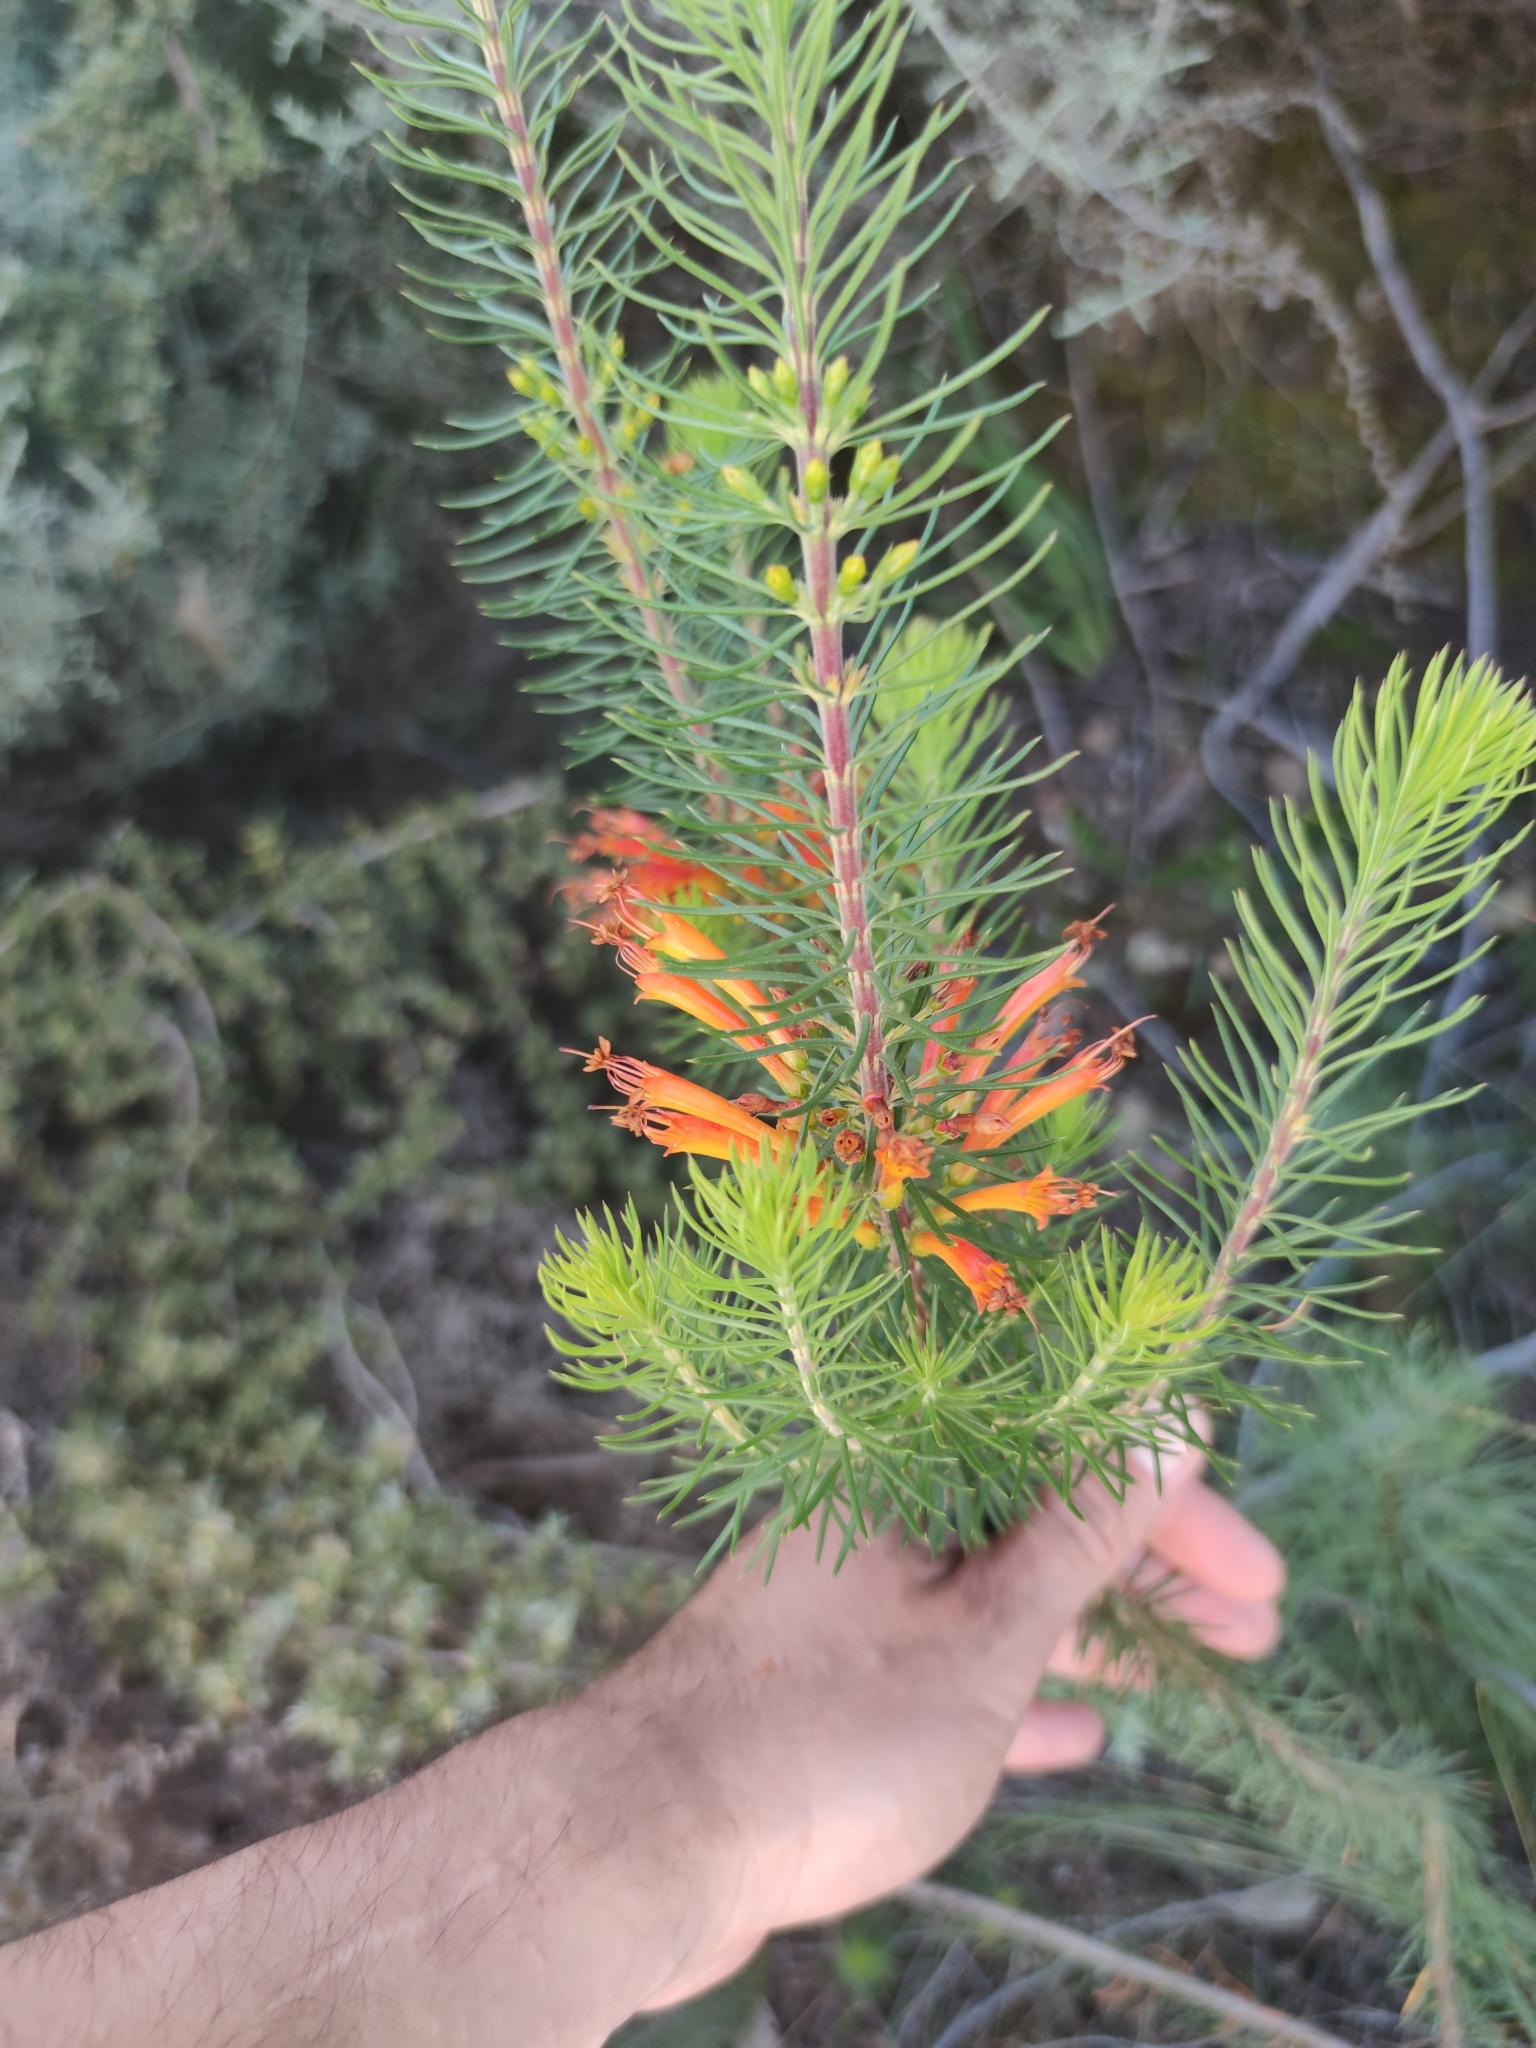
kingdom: Plantae
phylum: Tracheophyta
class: Magnoliopsida
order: Ericales
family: Ericaceae
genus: Erica
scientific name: Erica grandiflora
